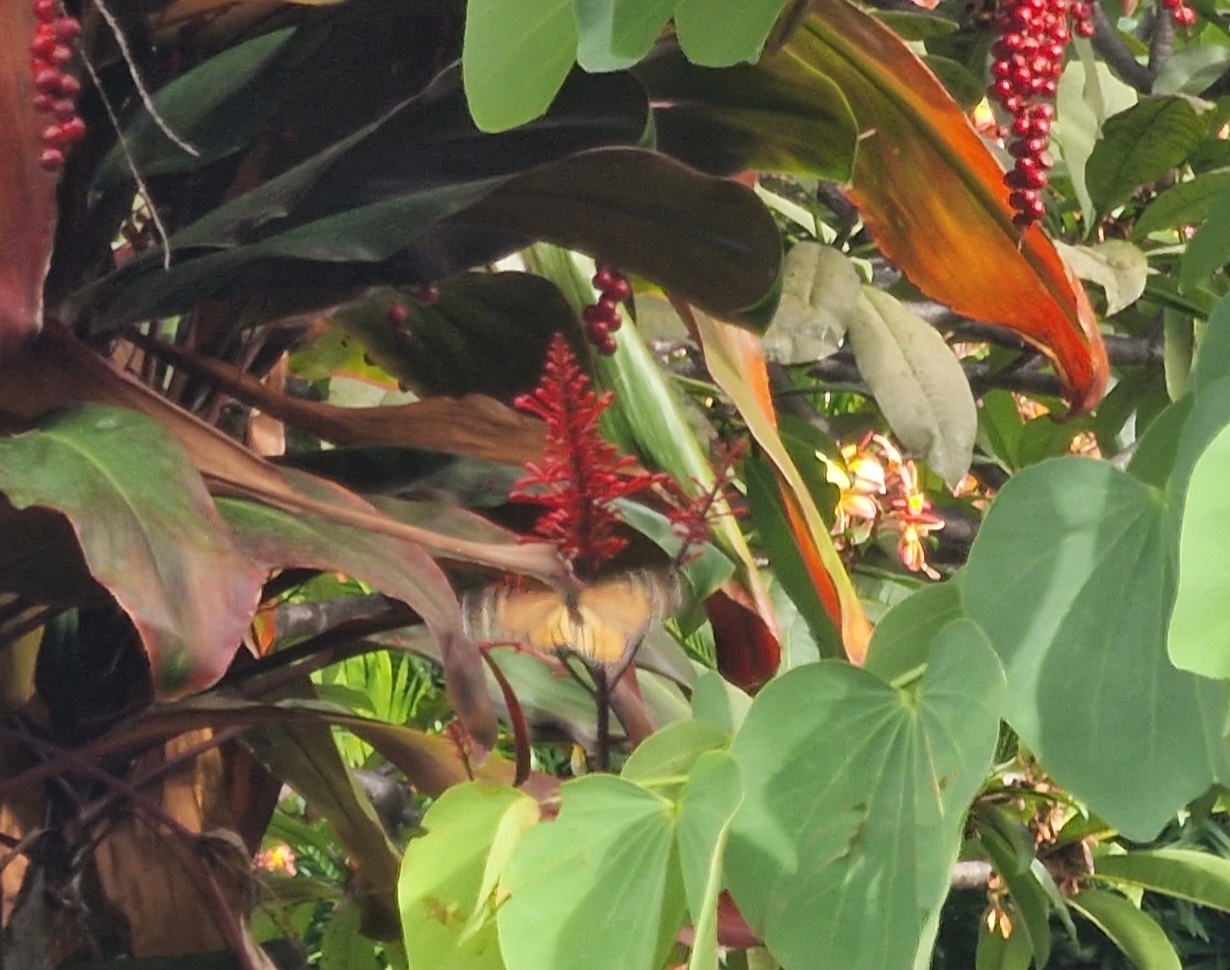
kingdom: Animalia
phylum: Arthropoda
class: Insecta
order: Lepidoptera
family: Nymphalidae
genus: Danaus
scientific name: Danaus plexippus
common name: Monarch
